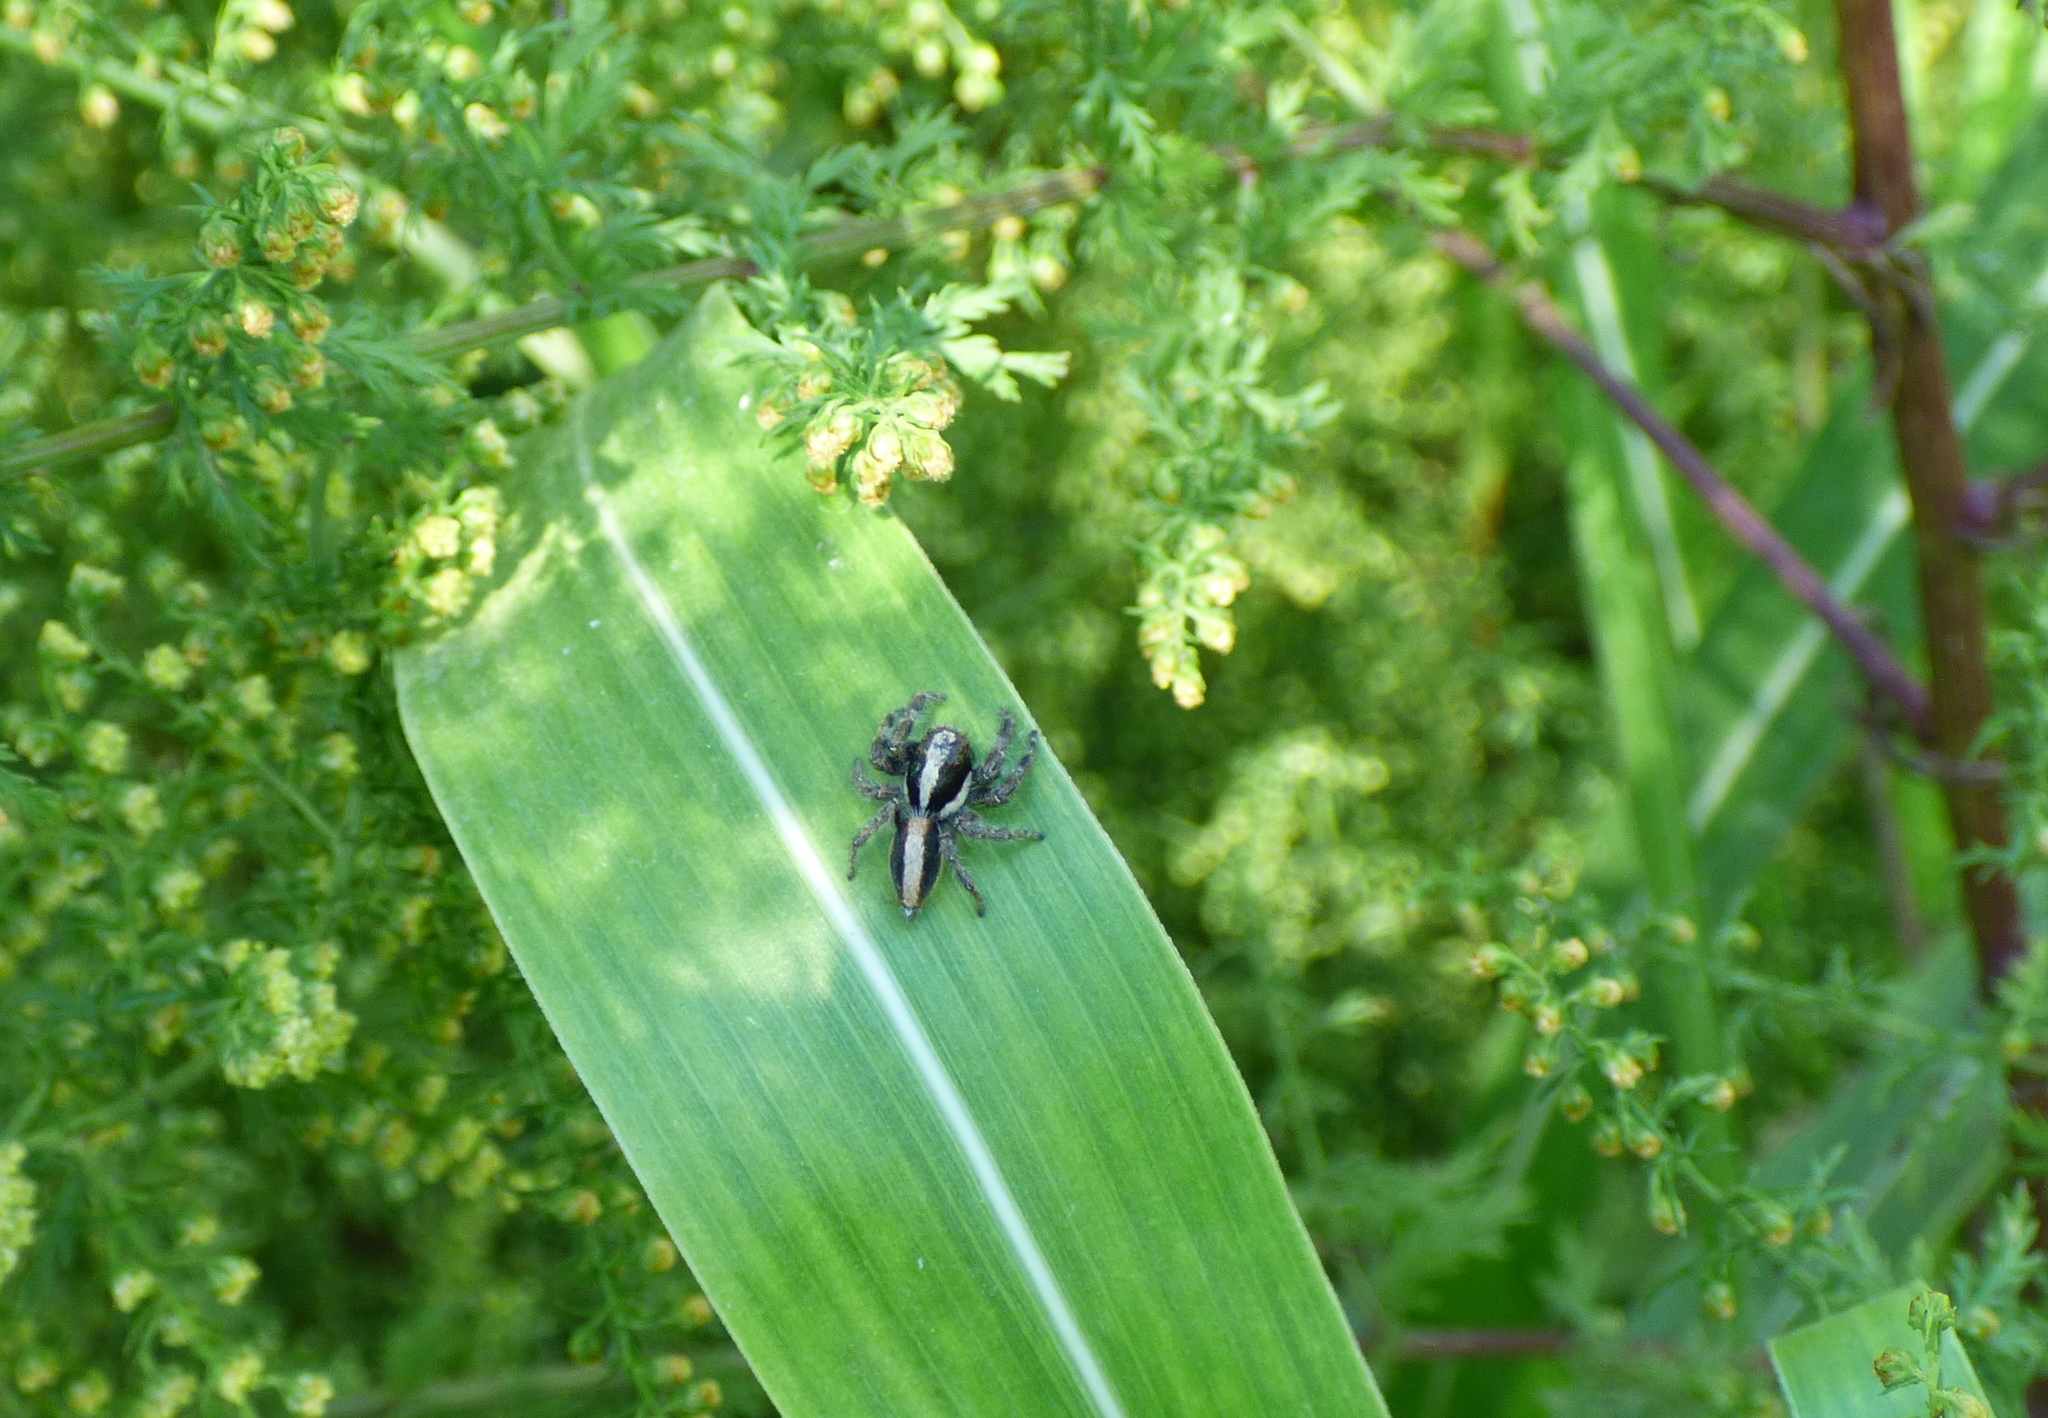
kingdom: Animalia
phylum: Arthropoda
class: Arachnida
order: Araneae
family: Salticidae
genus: Megafreya
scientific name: Megafreya sutrix
